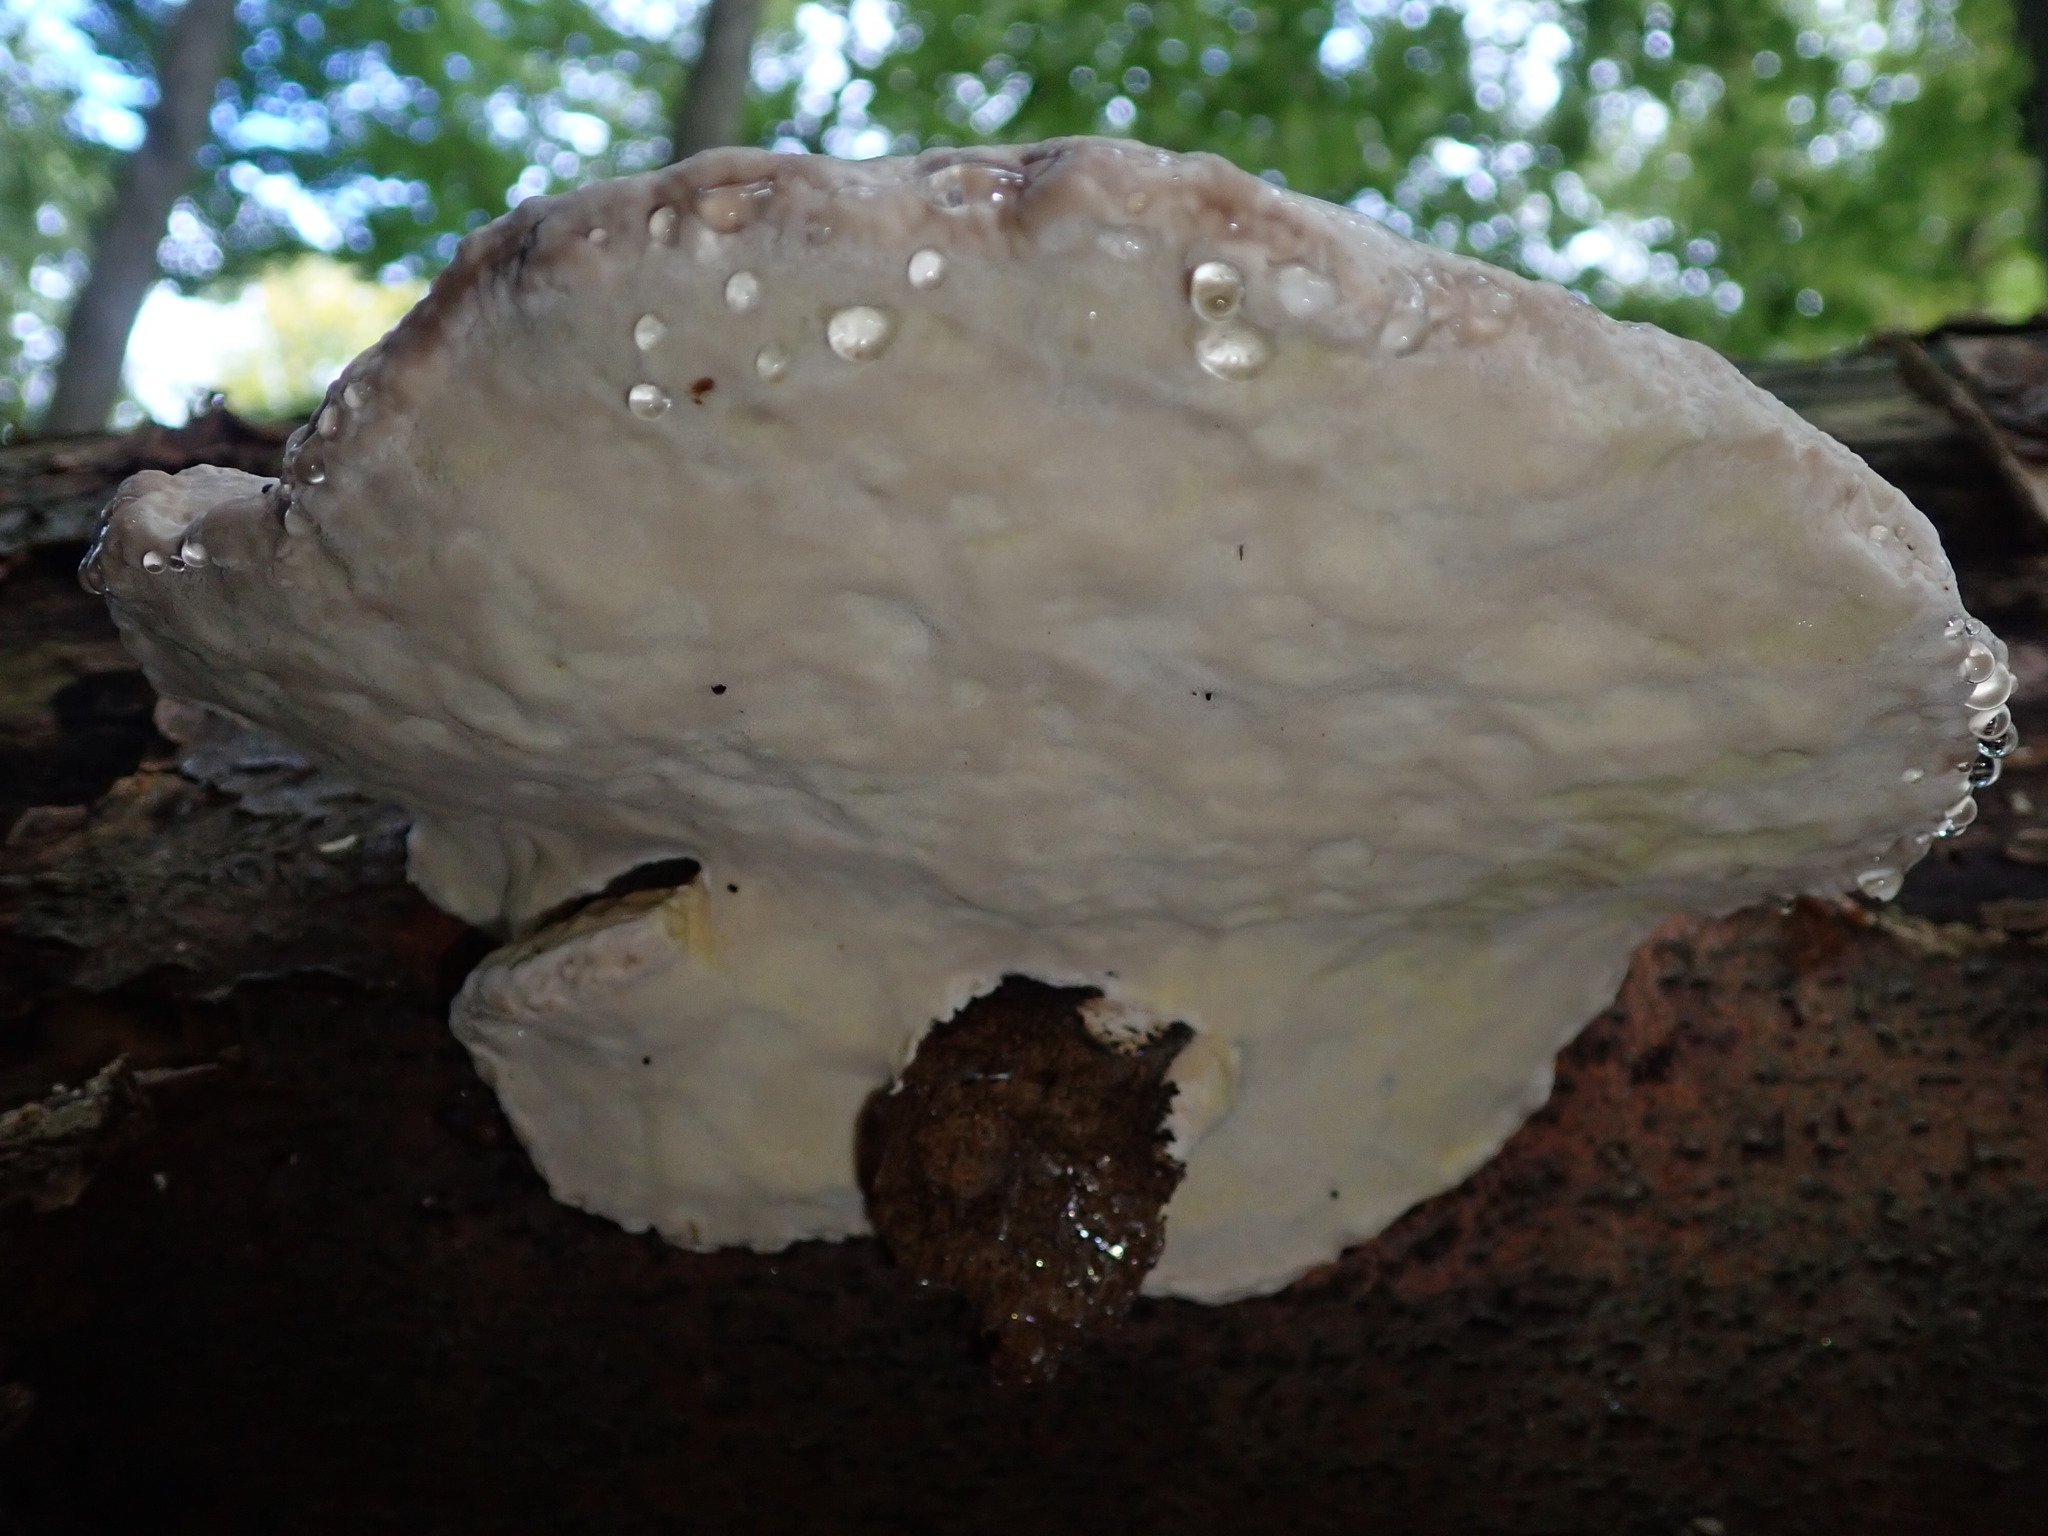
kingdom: Fungi
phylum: Basidiomycota
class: Agaricomycetes
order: Polyporales
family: Fomitopsidaceae
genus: Fomitopsis
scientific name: Fomitopsis pinicola
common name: Red-belted bracket
